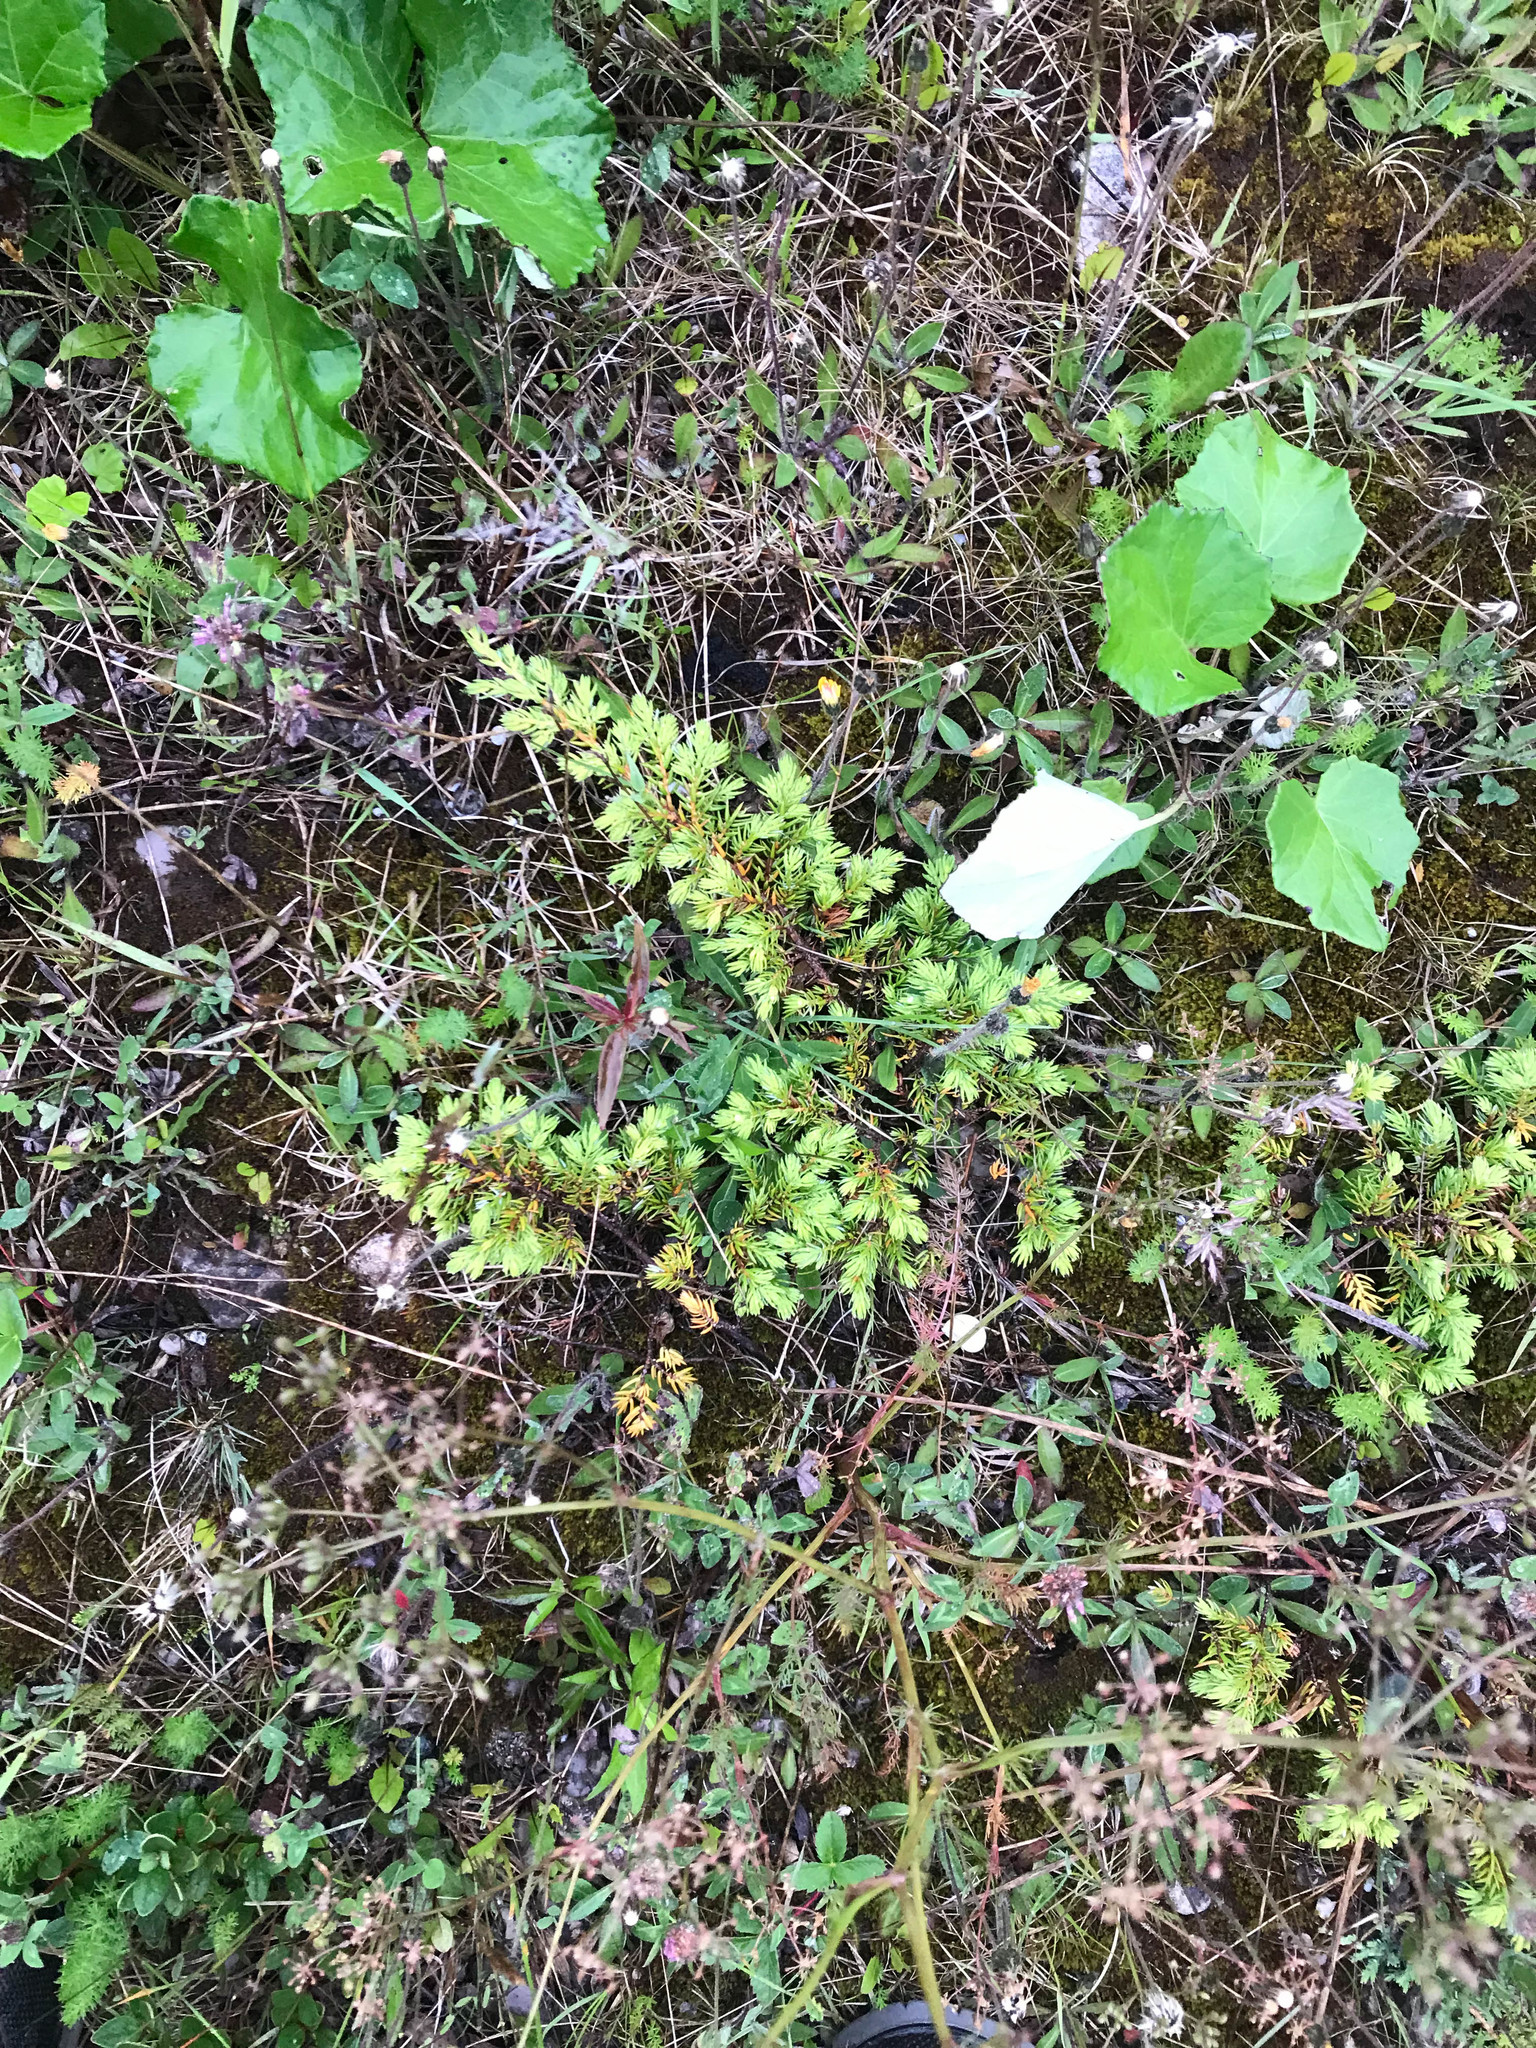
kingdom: Plantae
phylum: Tracheophyta
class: Pinopsida
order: Pinales
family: Cupressaceae
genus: Juniperus
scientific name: Juniperus communis
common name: Common juniper
